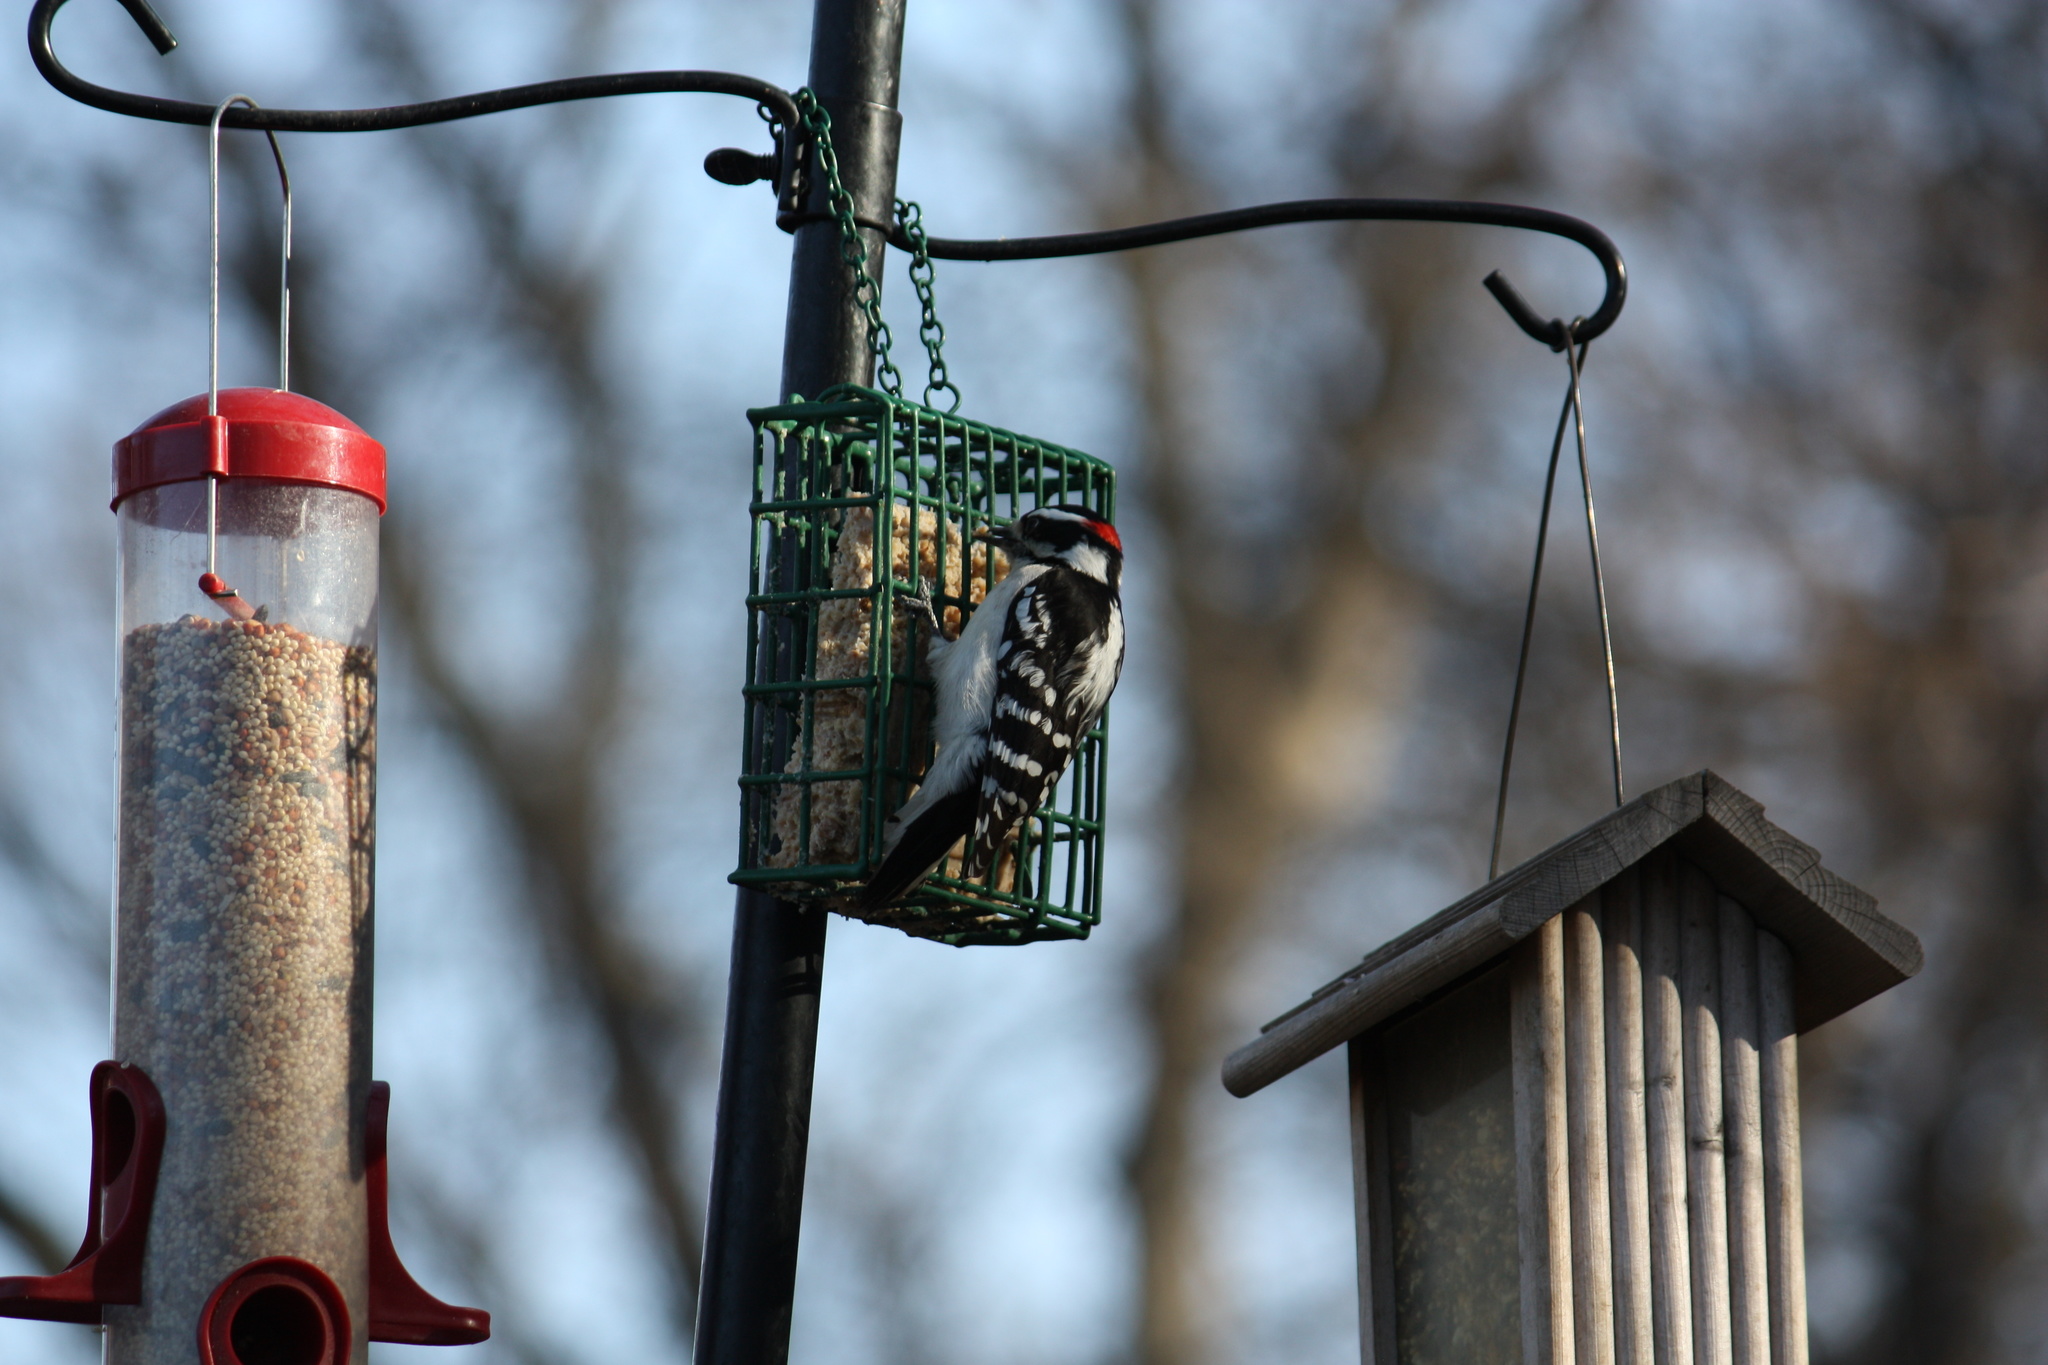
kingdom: Animalia
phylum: Chordata
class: Aves
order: Piciformes
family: Picidae
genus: Dryobates
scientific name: Dryobates pubescens
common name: Downy woodpecker
